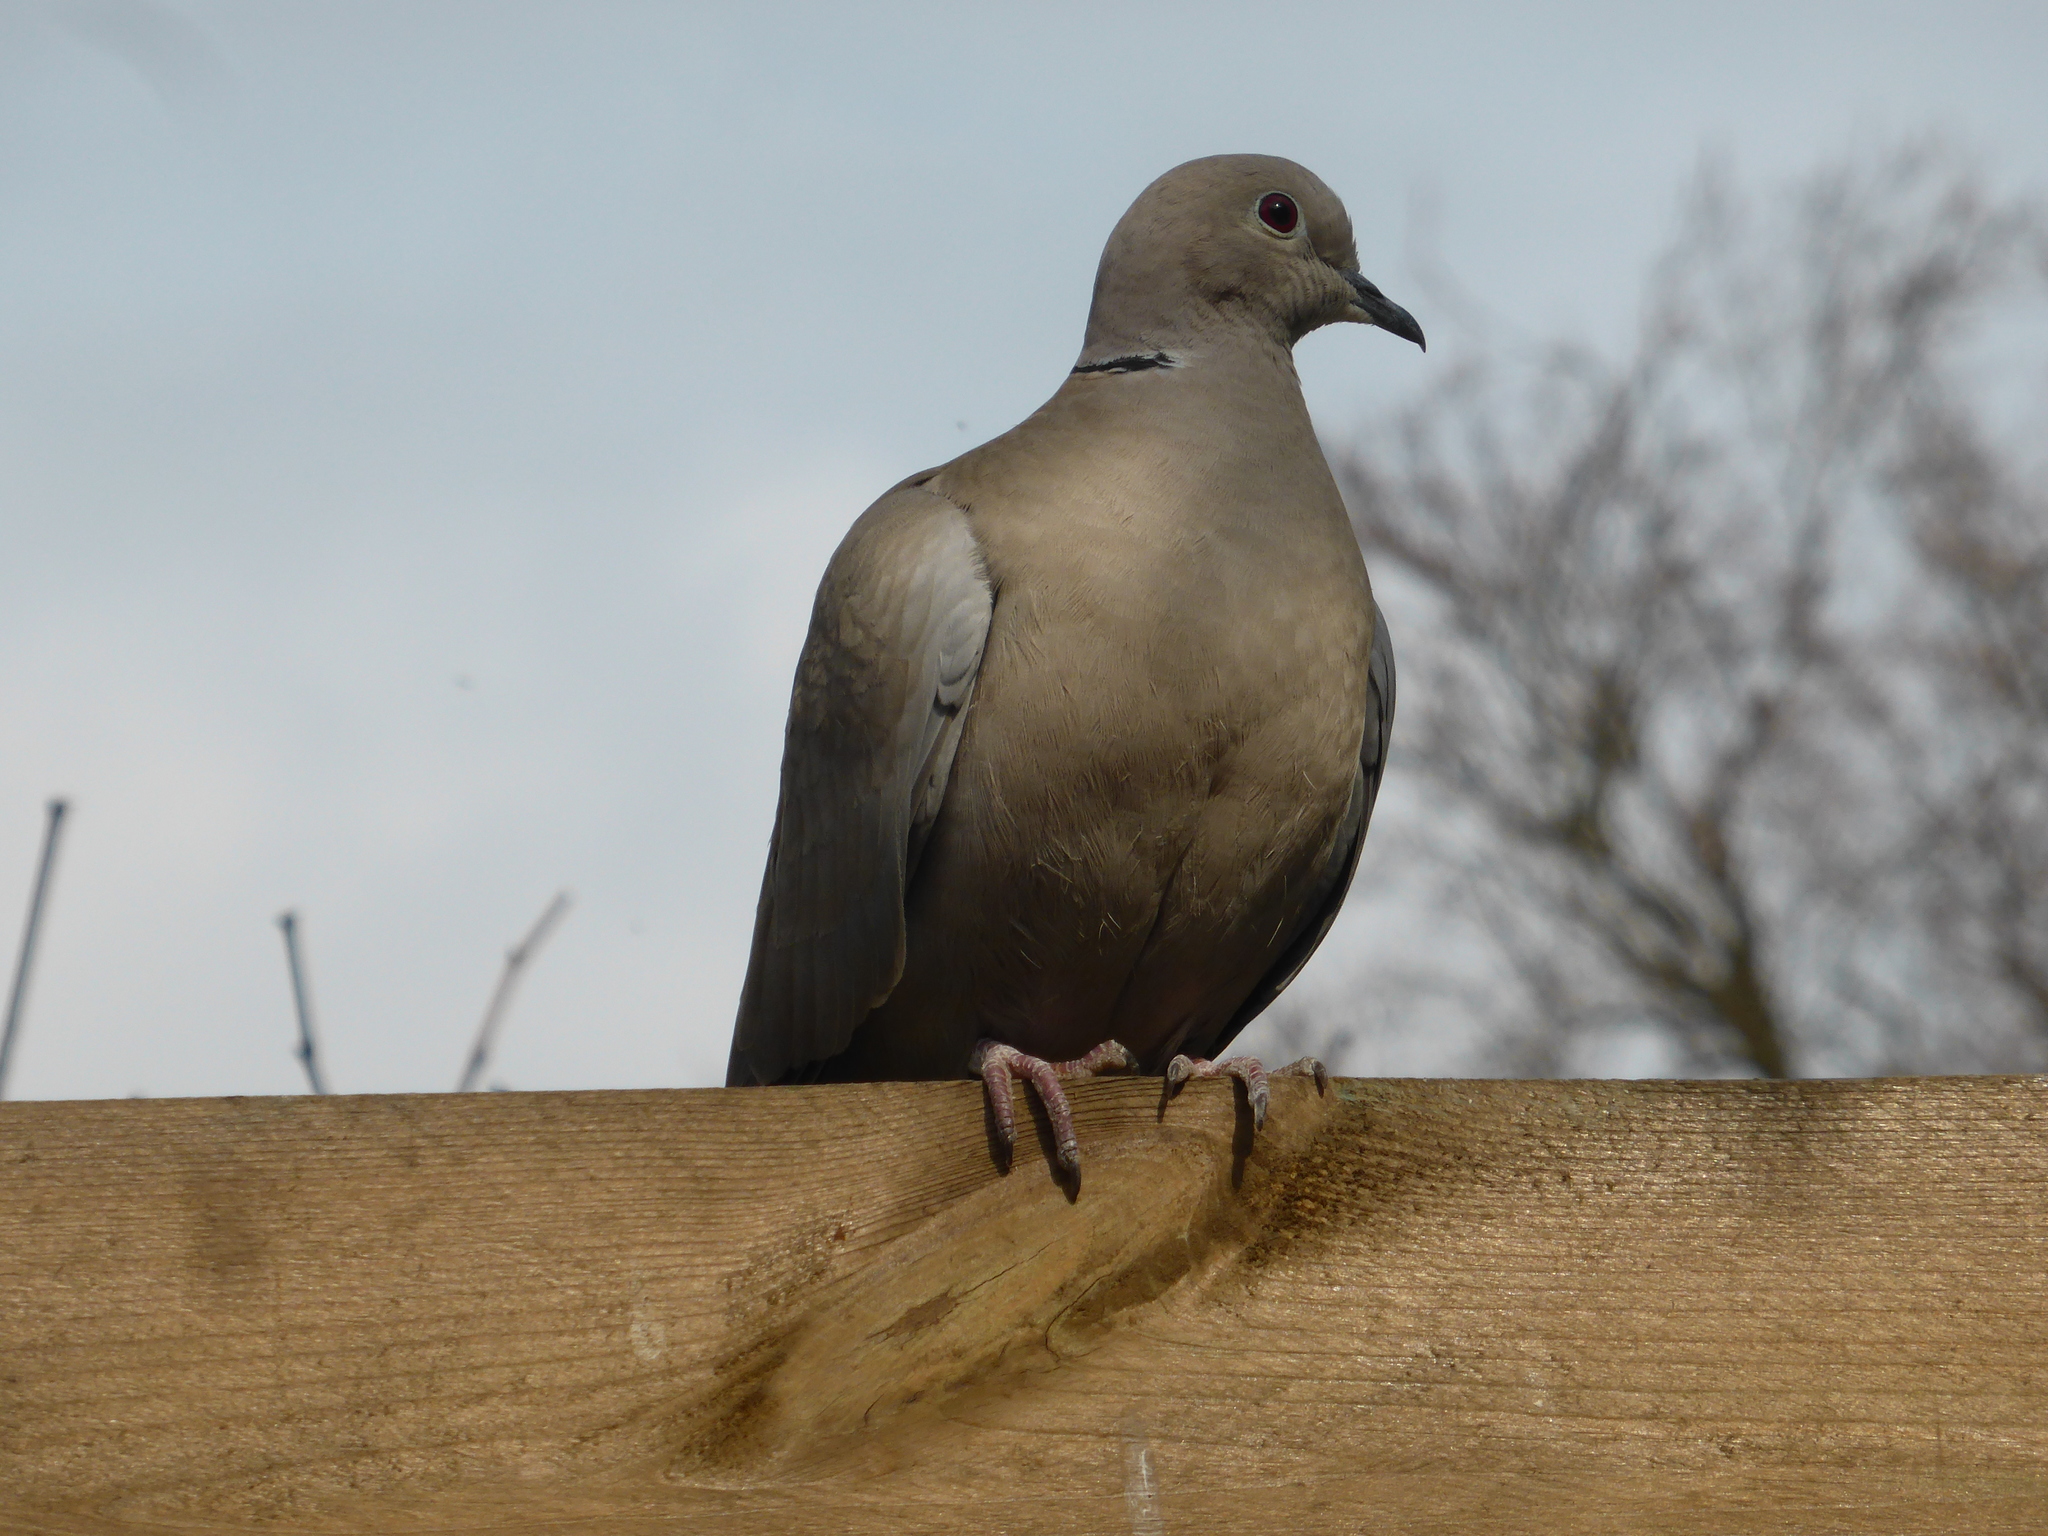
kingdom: Animalia
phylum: Chordata
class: Aves
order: Columbiformes
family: Columbidae
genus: Streptopelia
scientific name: Streptopelia decaocto
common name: Eurasian collared dove
